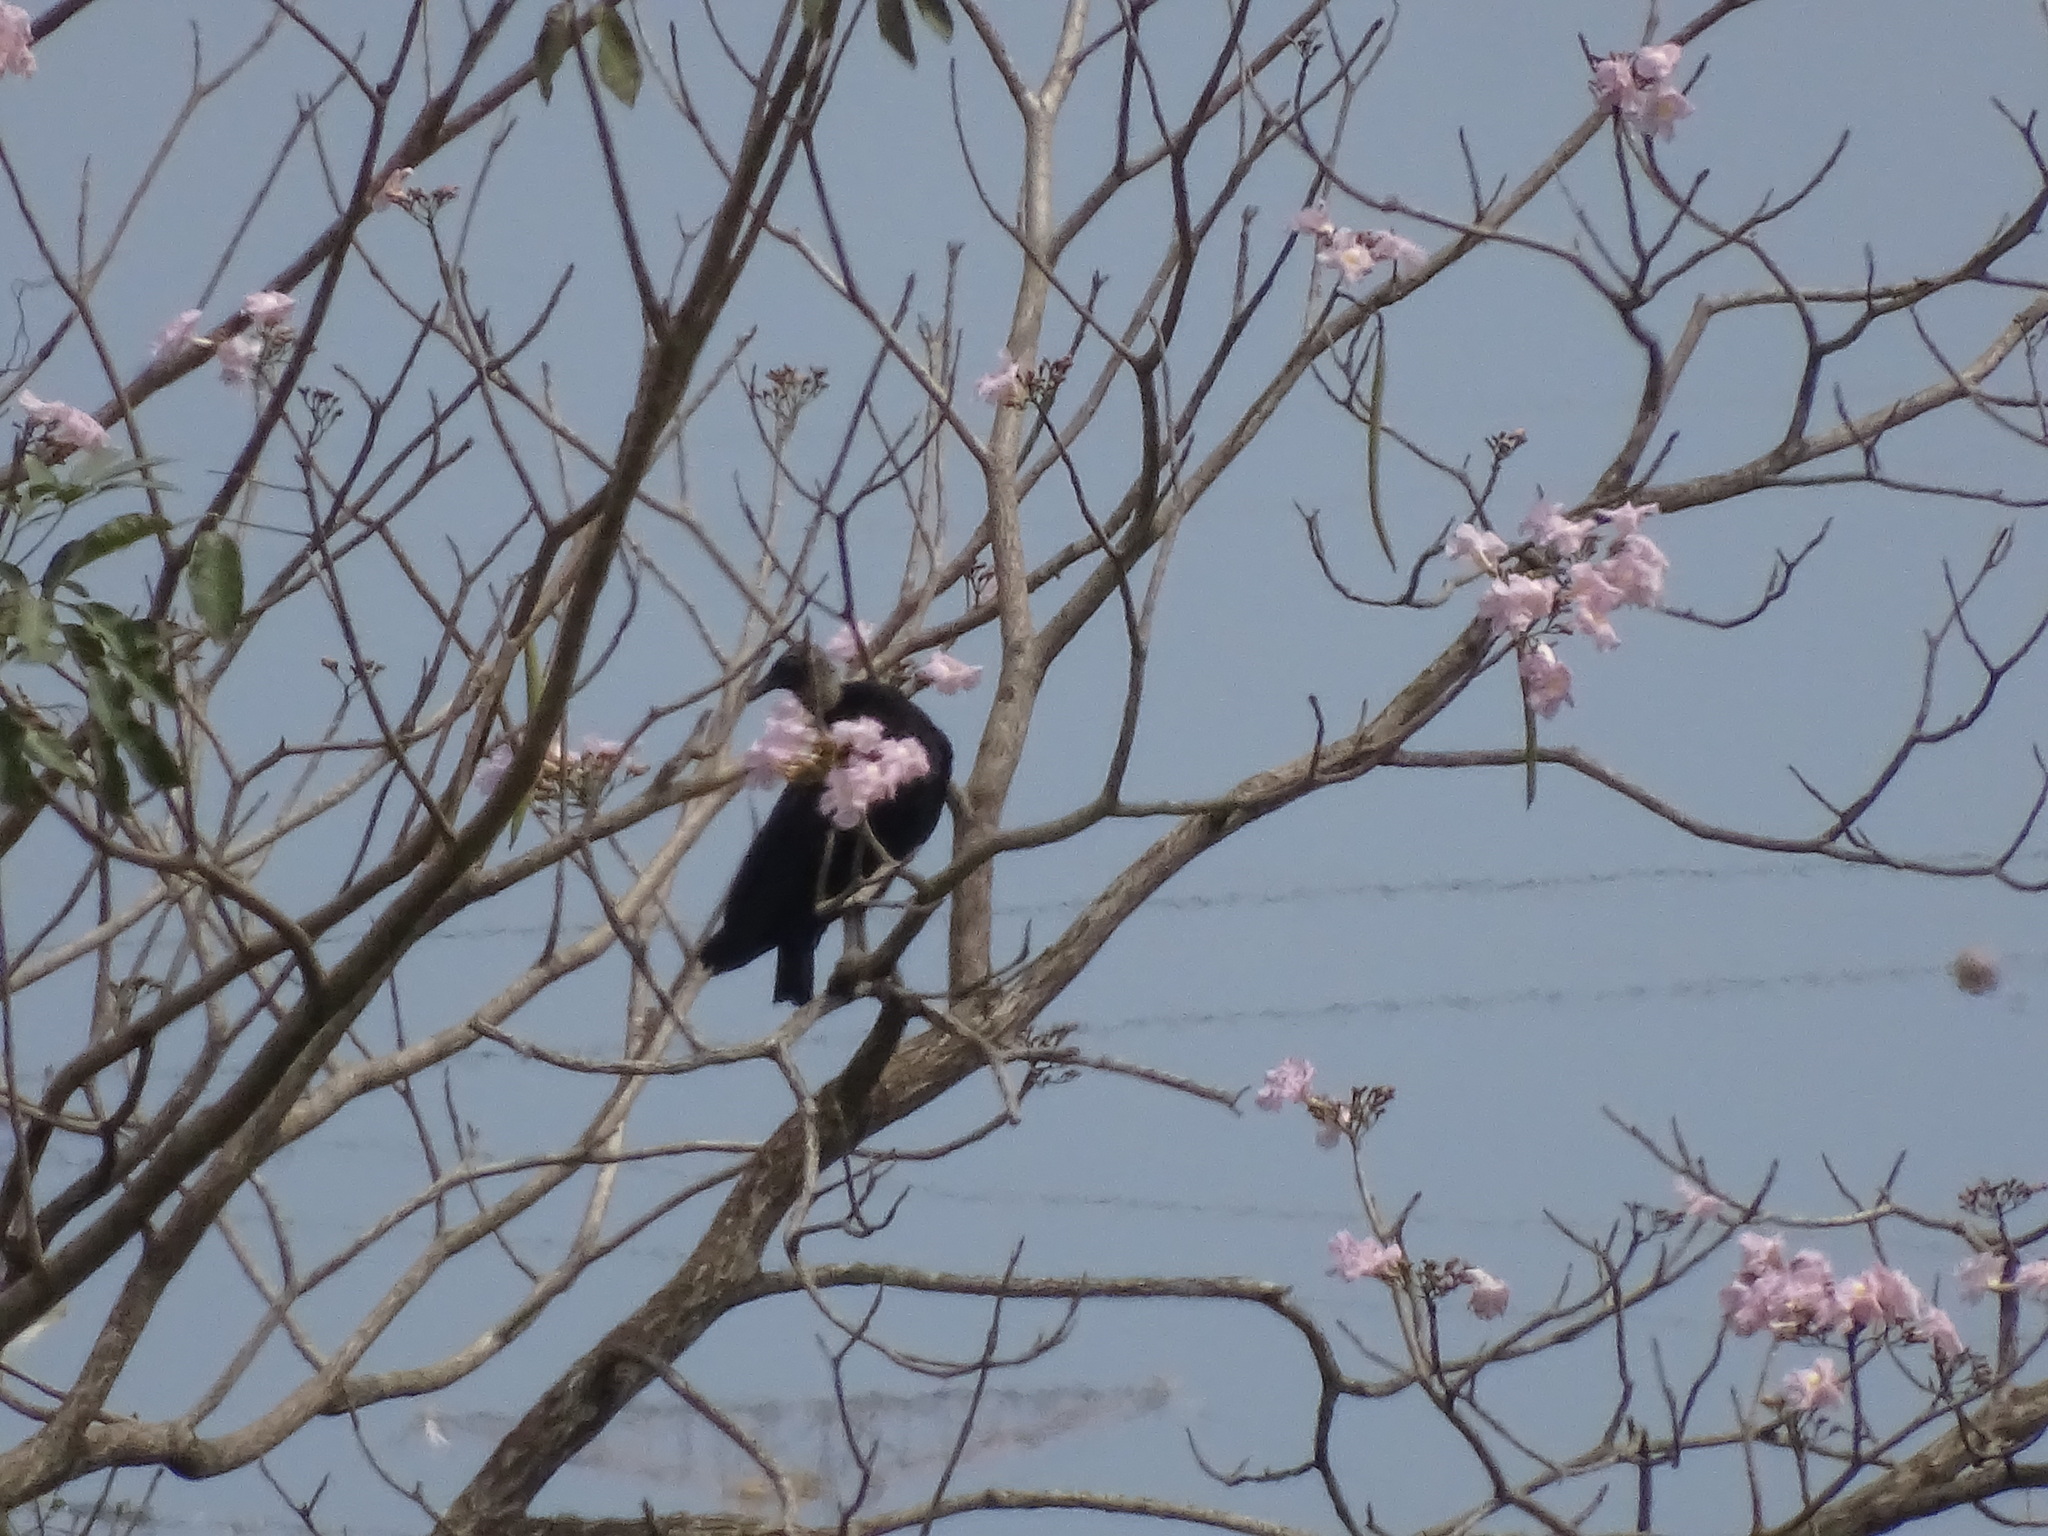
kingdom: Animalia
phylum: Chordata
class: Aves
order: Accipitriformes
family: Cathartidae
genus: Coragyps
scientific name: Coragyps atratus
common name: Black vulture
